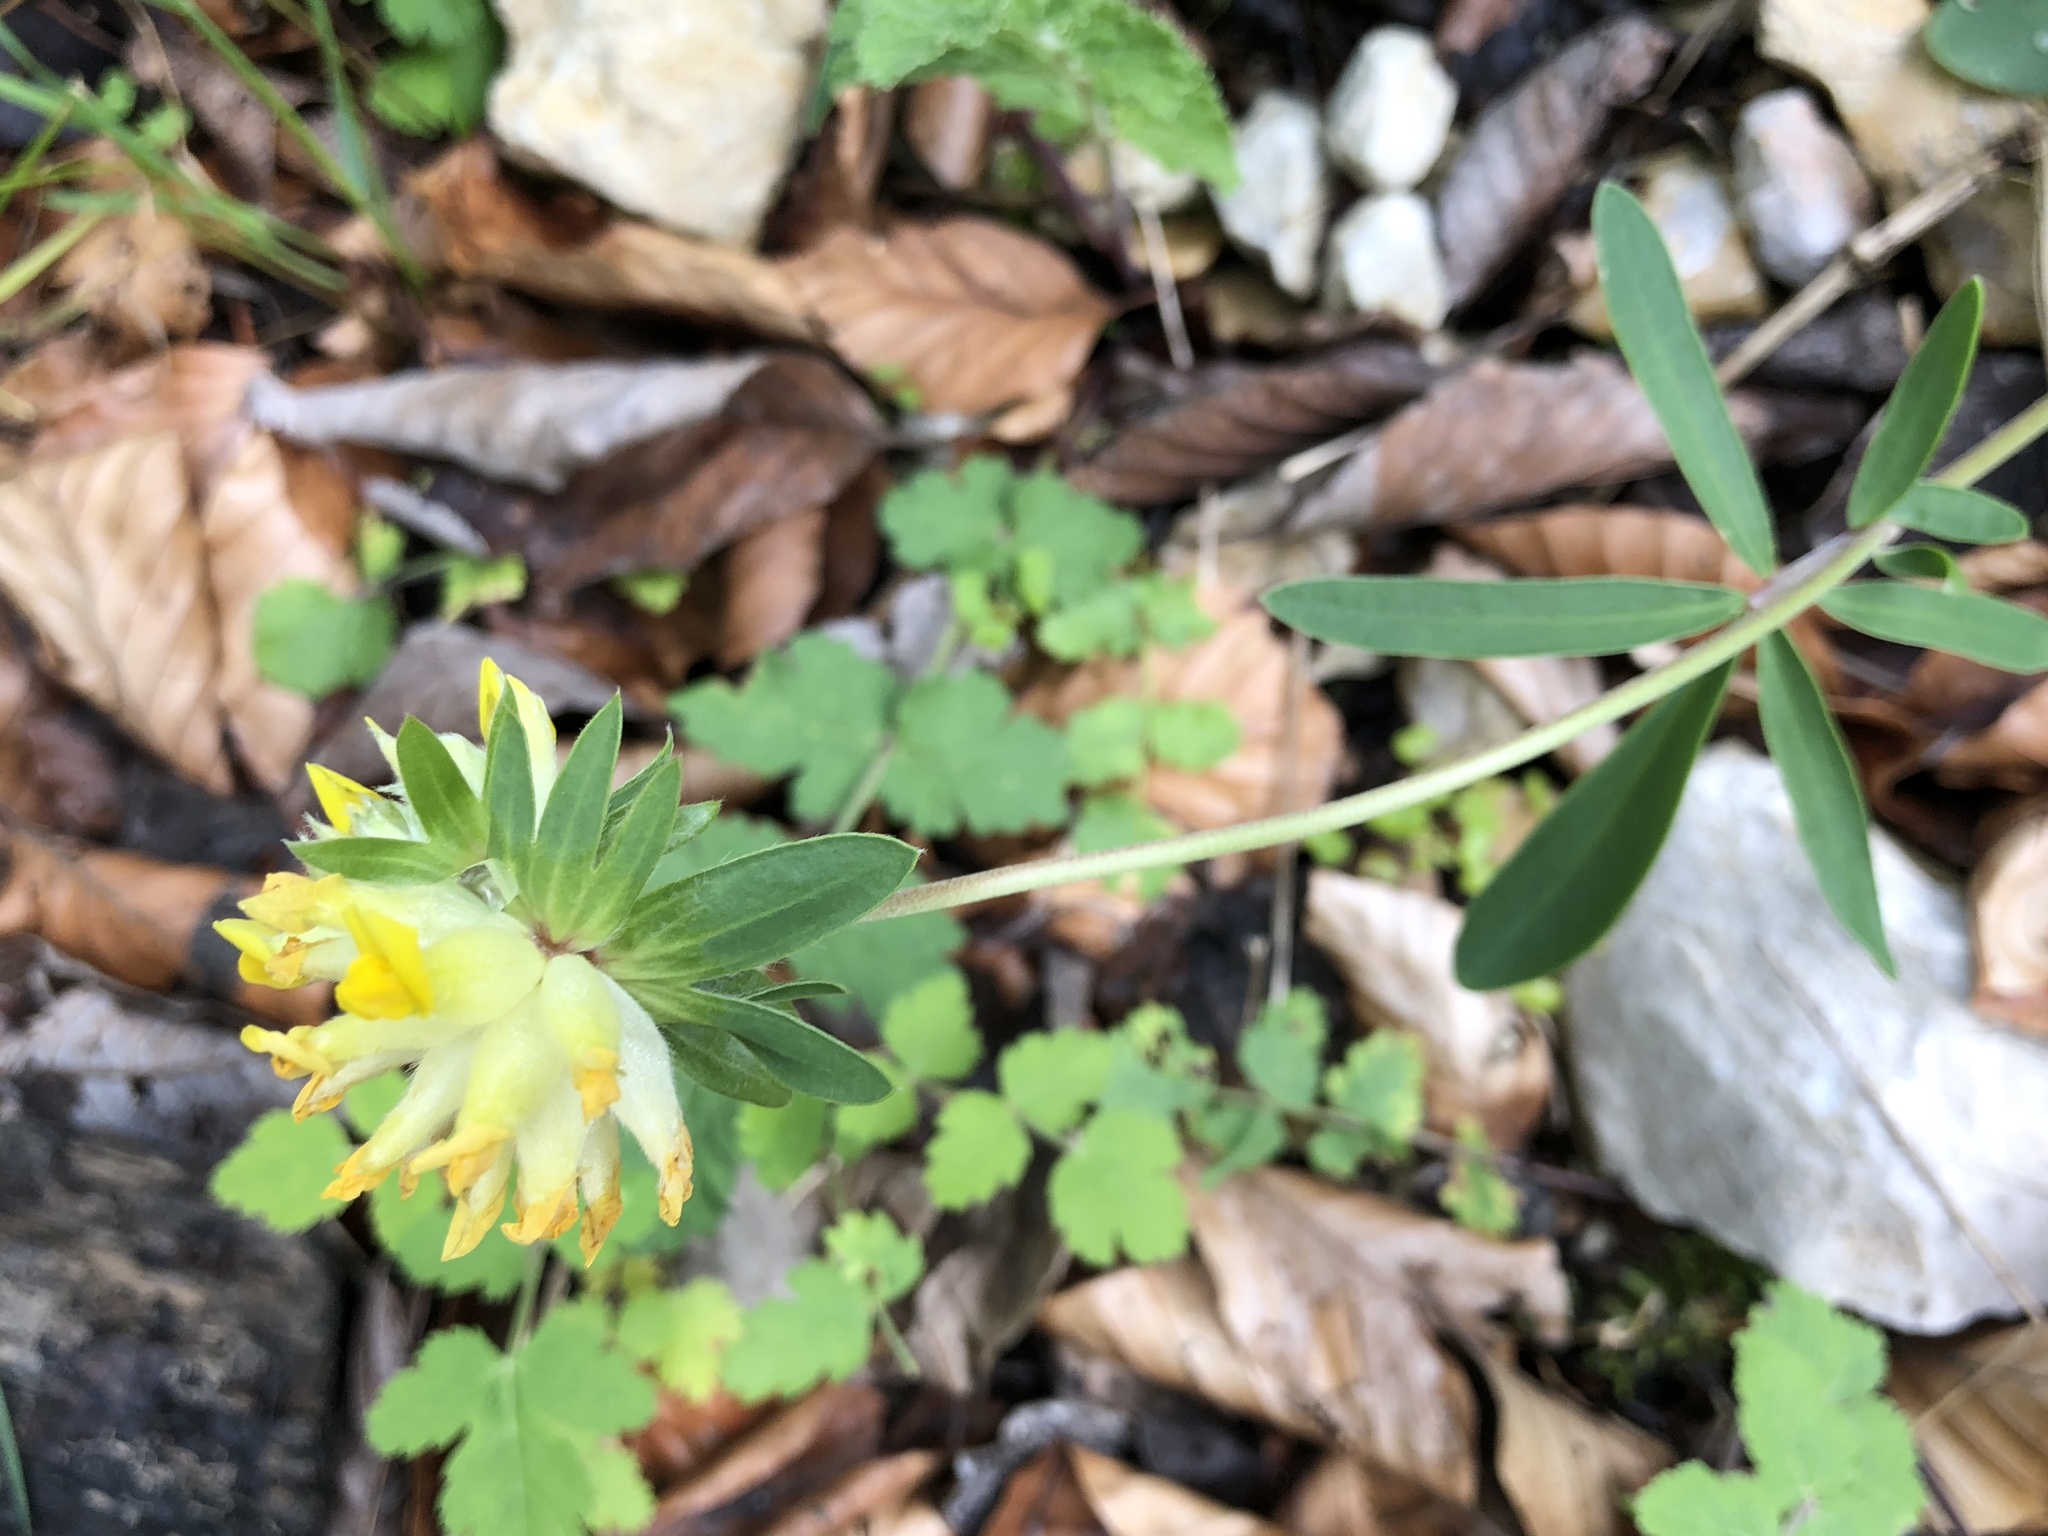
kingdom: Plantae
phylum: Tracheophyta
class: Magnoliopsida
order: Fabales
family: Fabaceae
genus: Anthyllis
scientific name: Anthyllis vulneraria
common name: Kidney vetch
